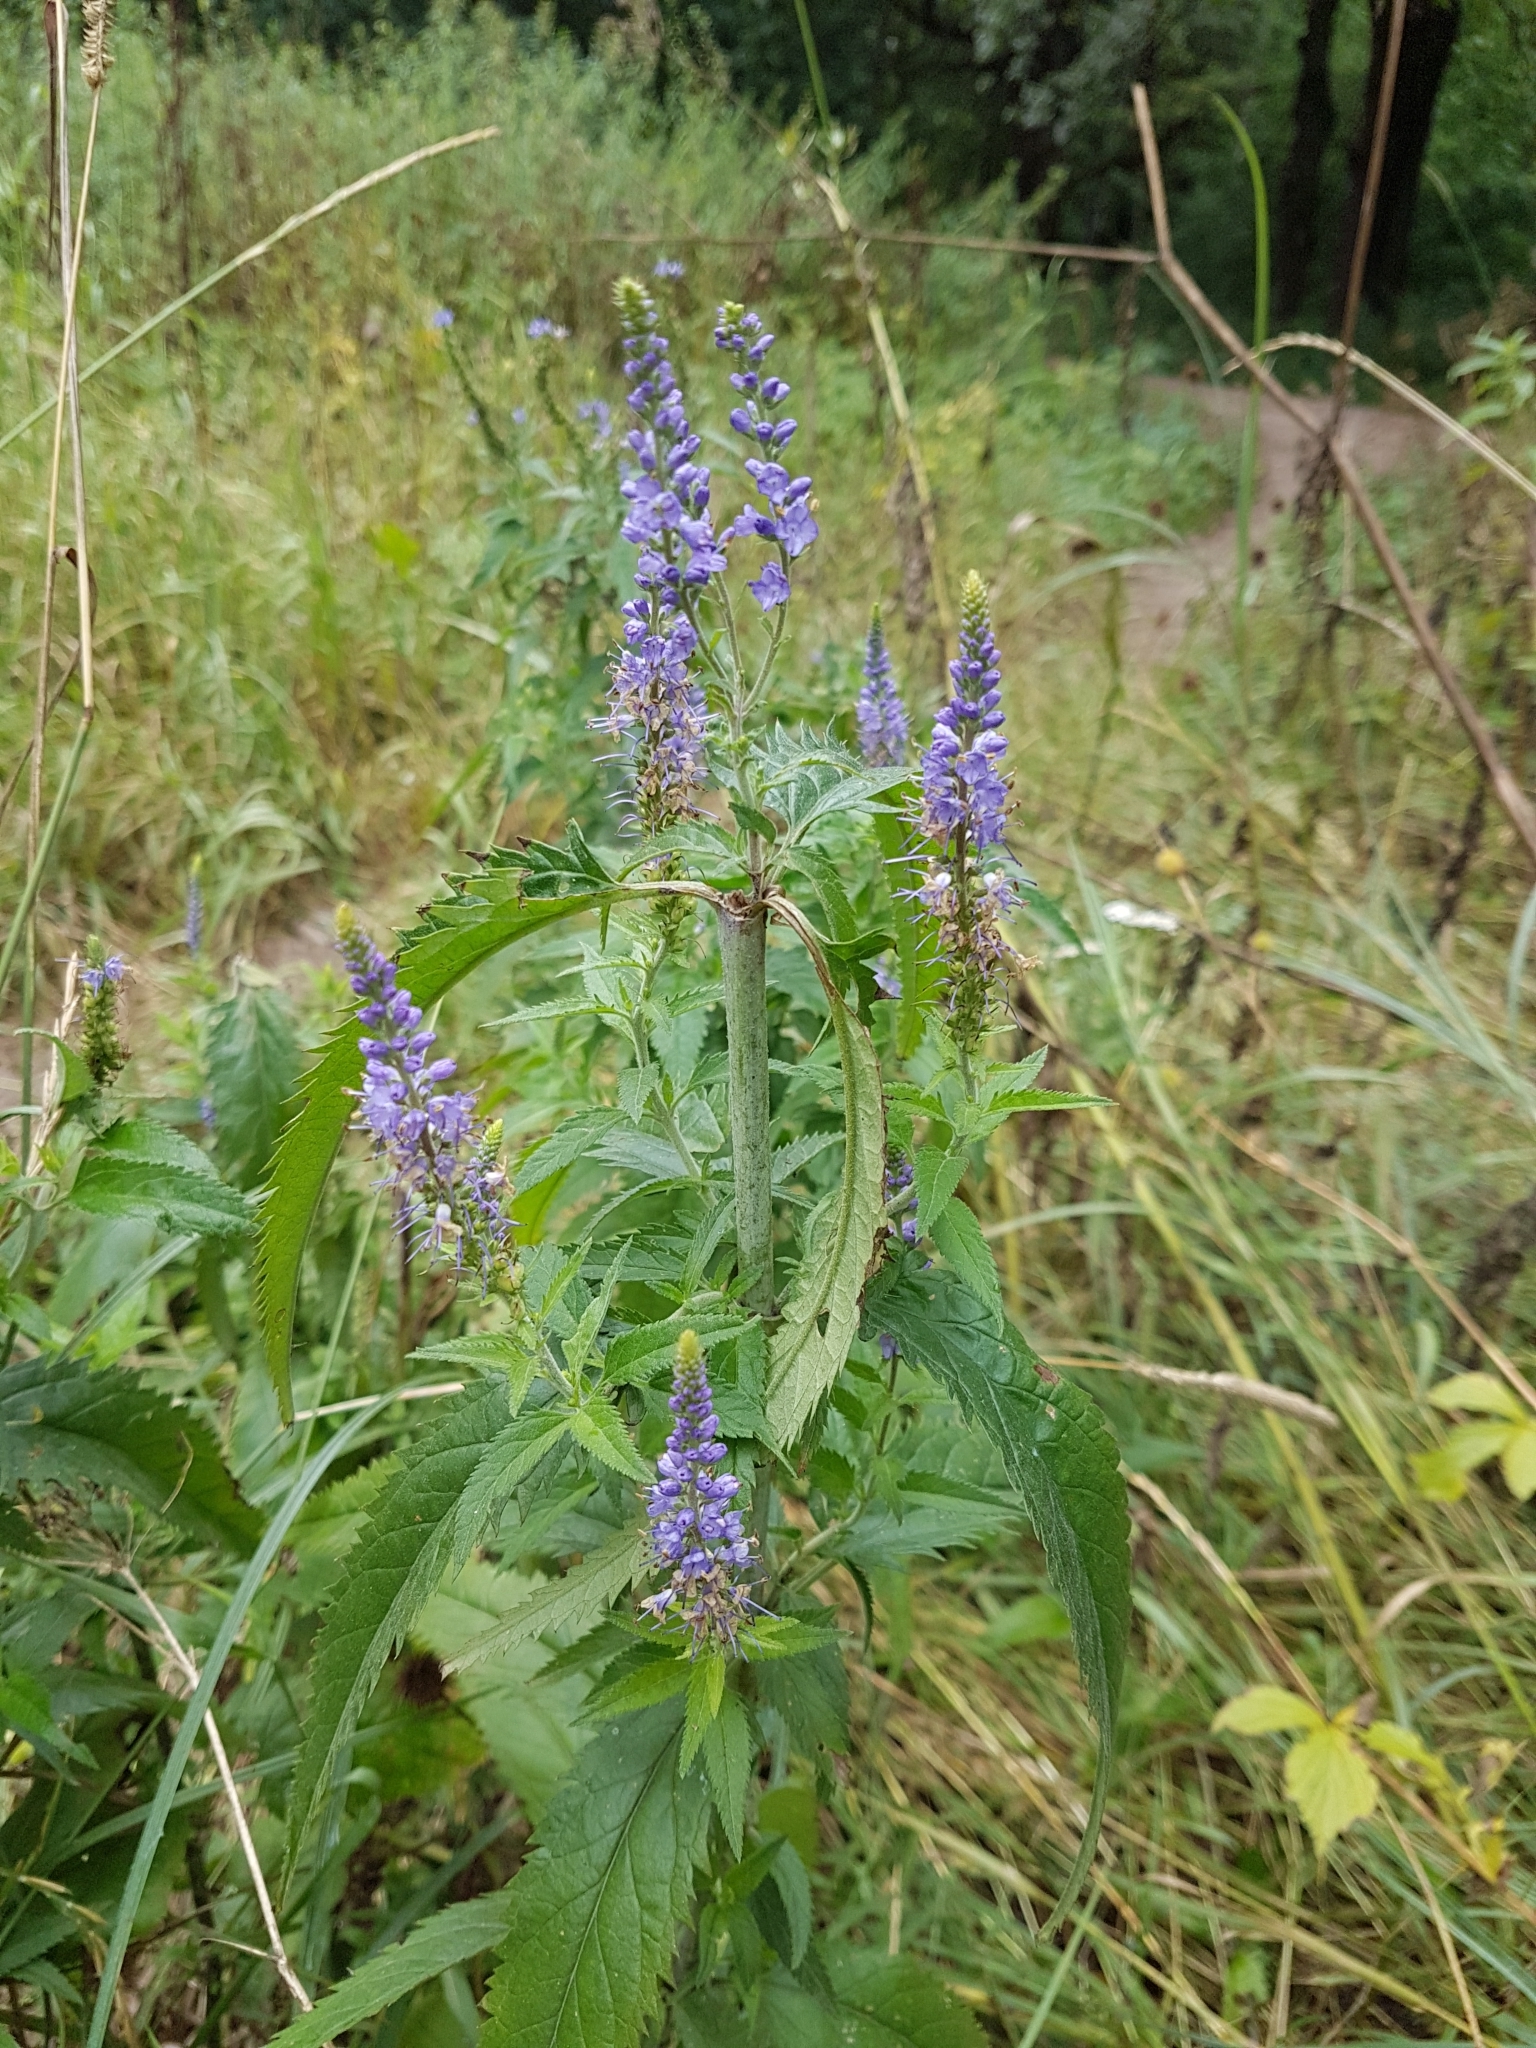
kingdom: Plantae
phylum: Tracheophyta
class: Magnoliopsida
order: Lamiales
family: Plantaginaceae
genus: Veronica
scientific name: Veronica longifolia
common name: Garden speedwell
